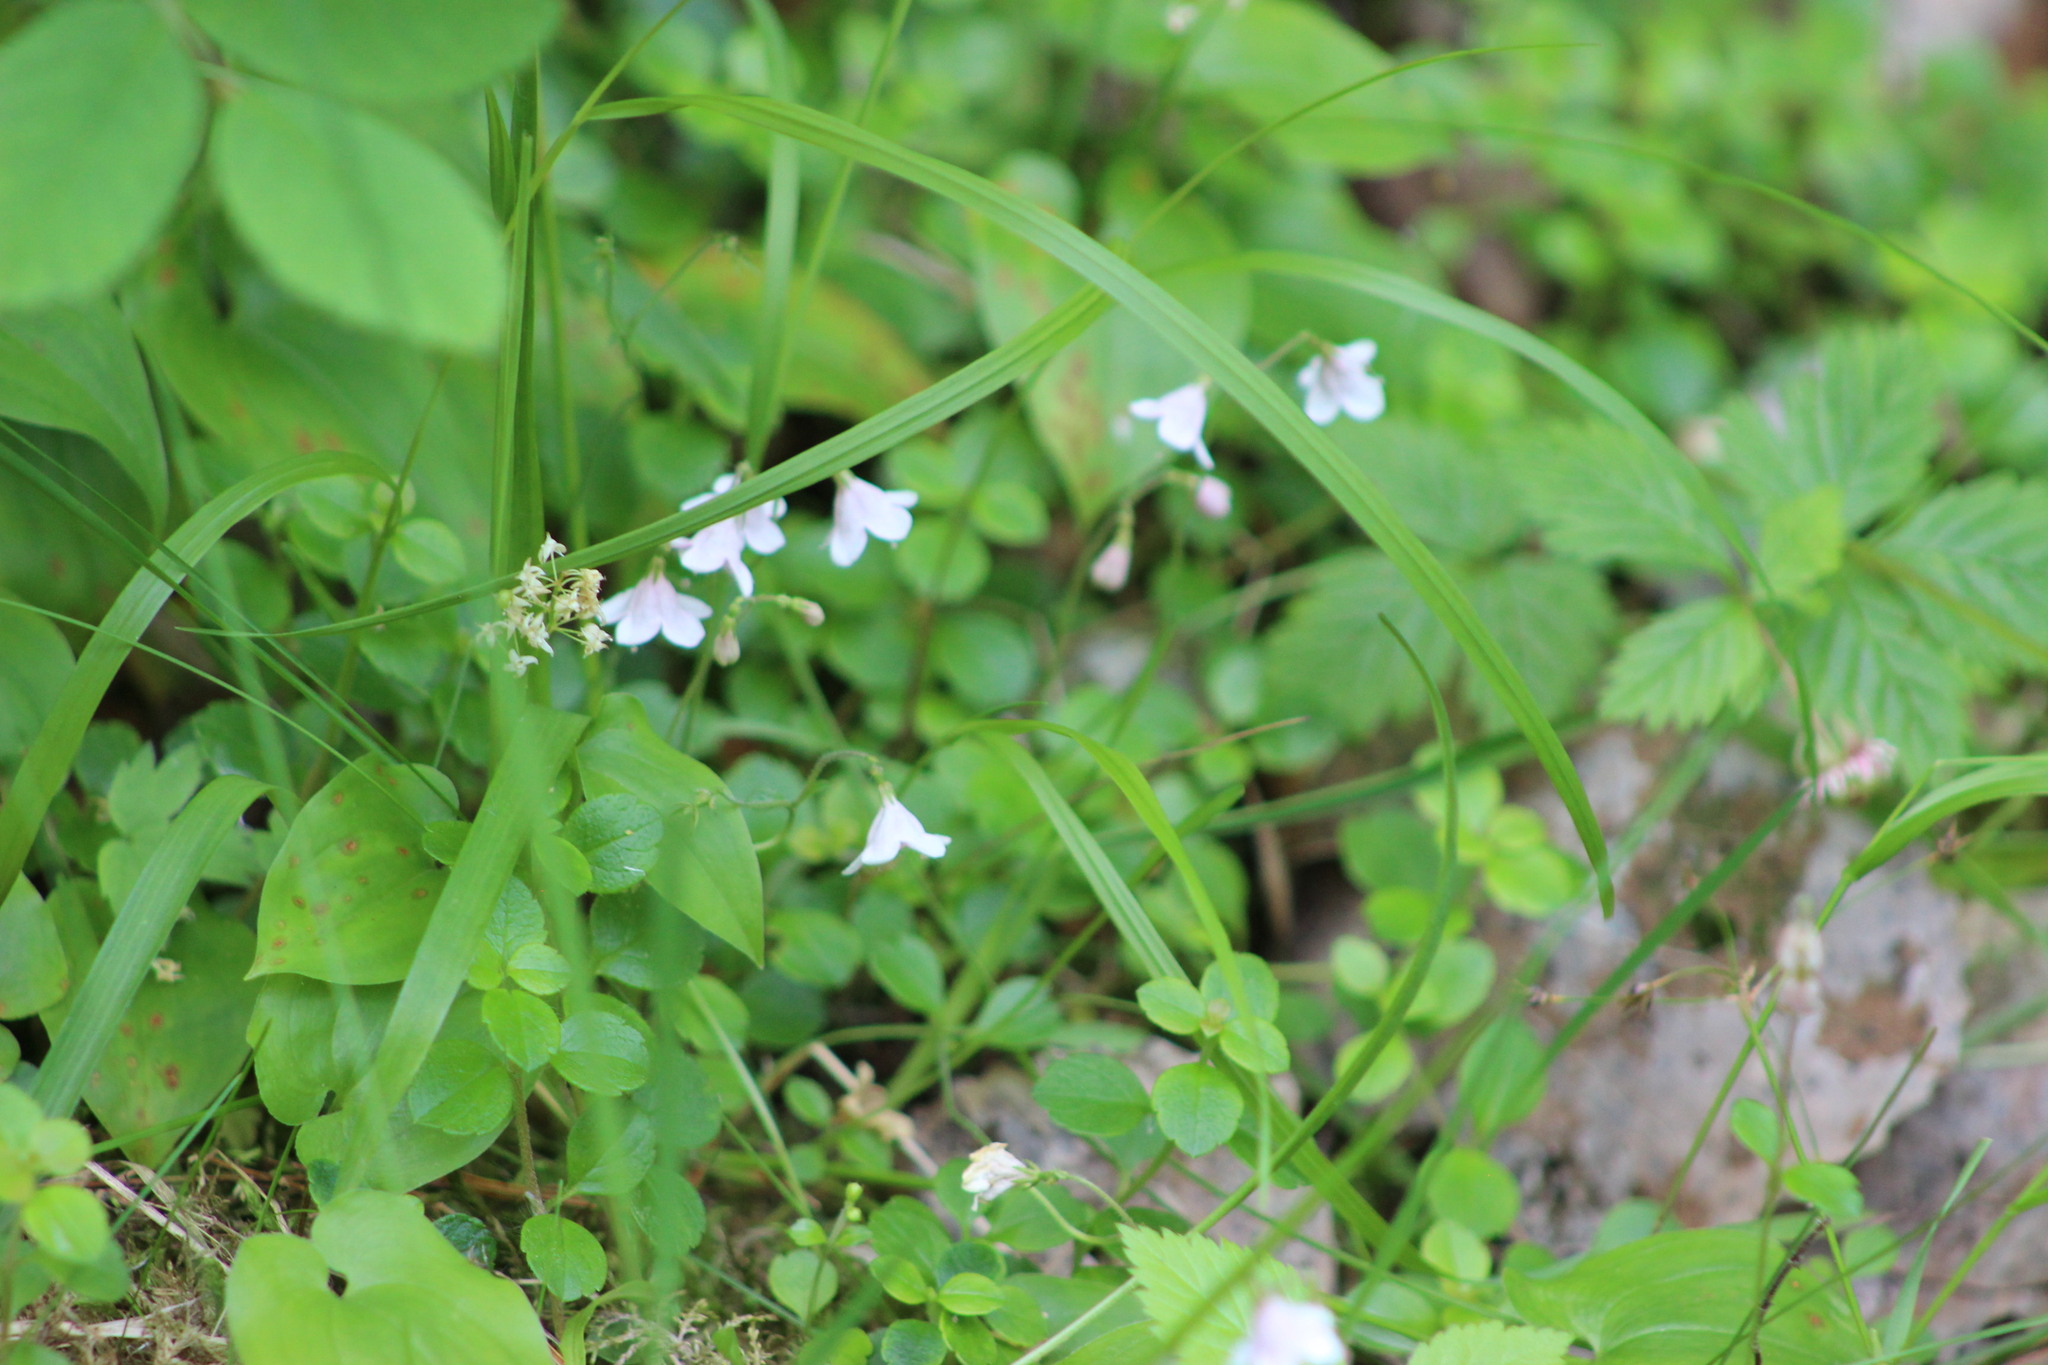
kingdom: Plantae
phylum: Tracheophyta
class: Magnoliopsida
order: Dipsacales
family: Caprifoliaceae
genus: Linnaea
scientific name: Linnaea borealis
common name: Twinflower
